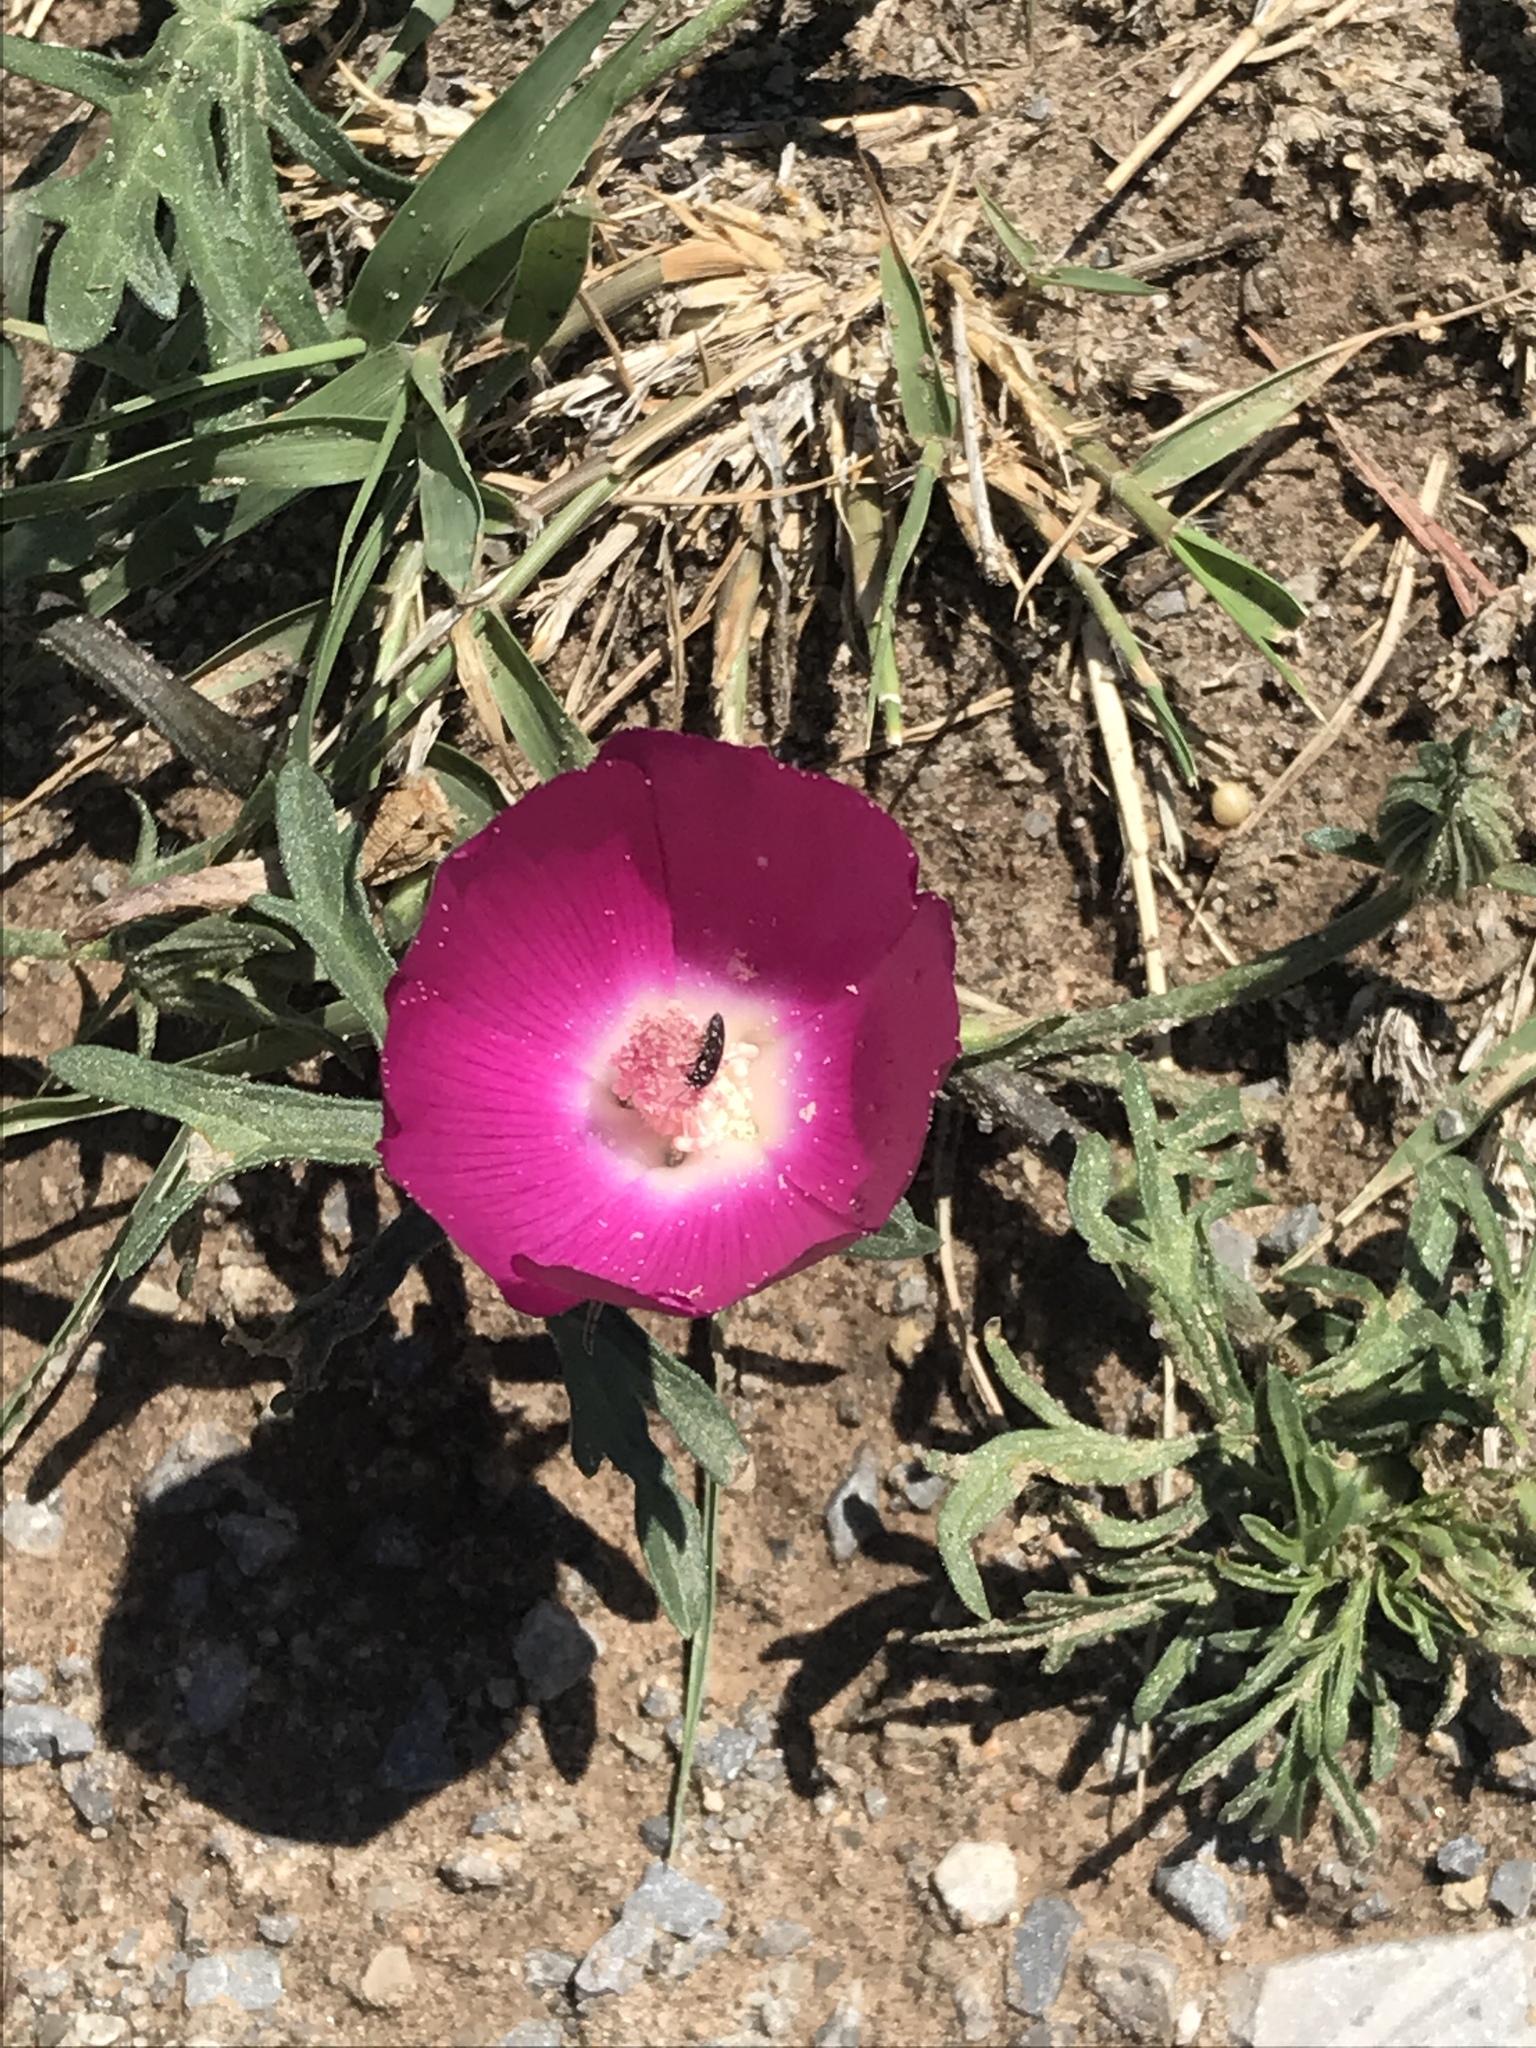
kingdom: Plantae
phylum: Tracheophyta
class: Magnoliopsida
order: Malvales
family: Malvaceae
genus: Callirhoe
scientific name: Callirhoe involucrata
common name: Purple poppy-mallow
